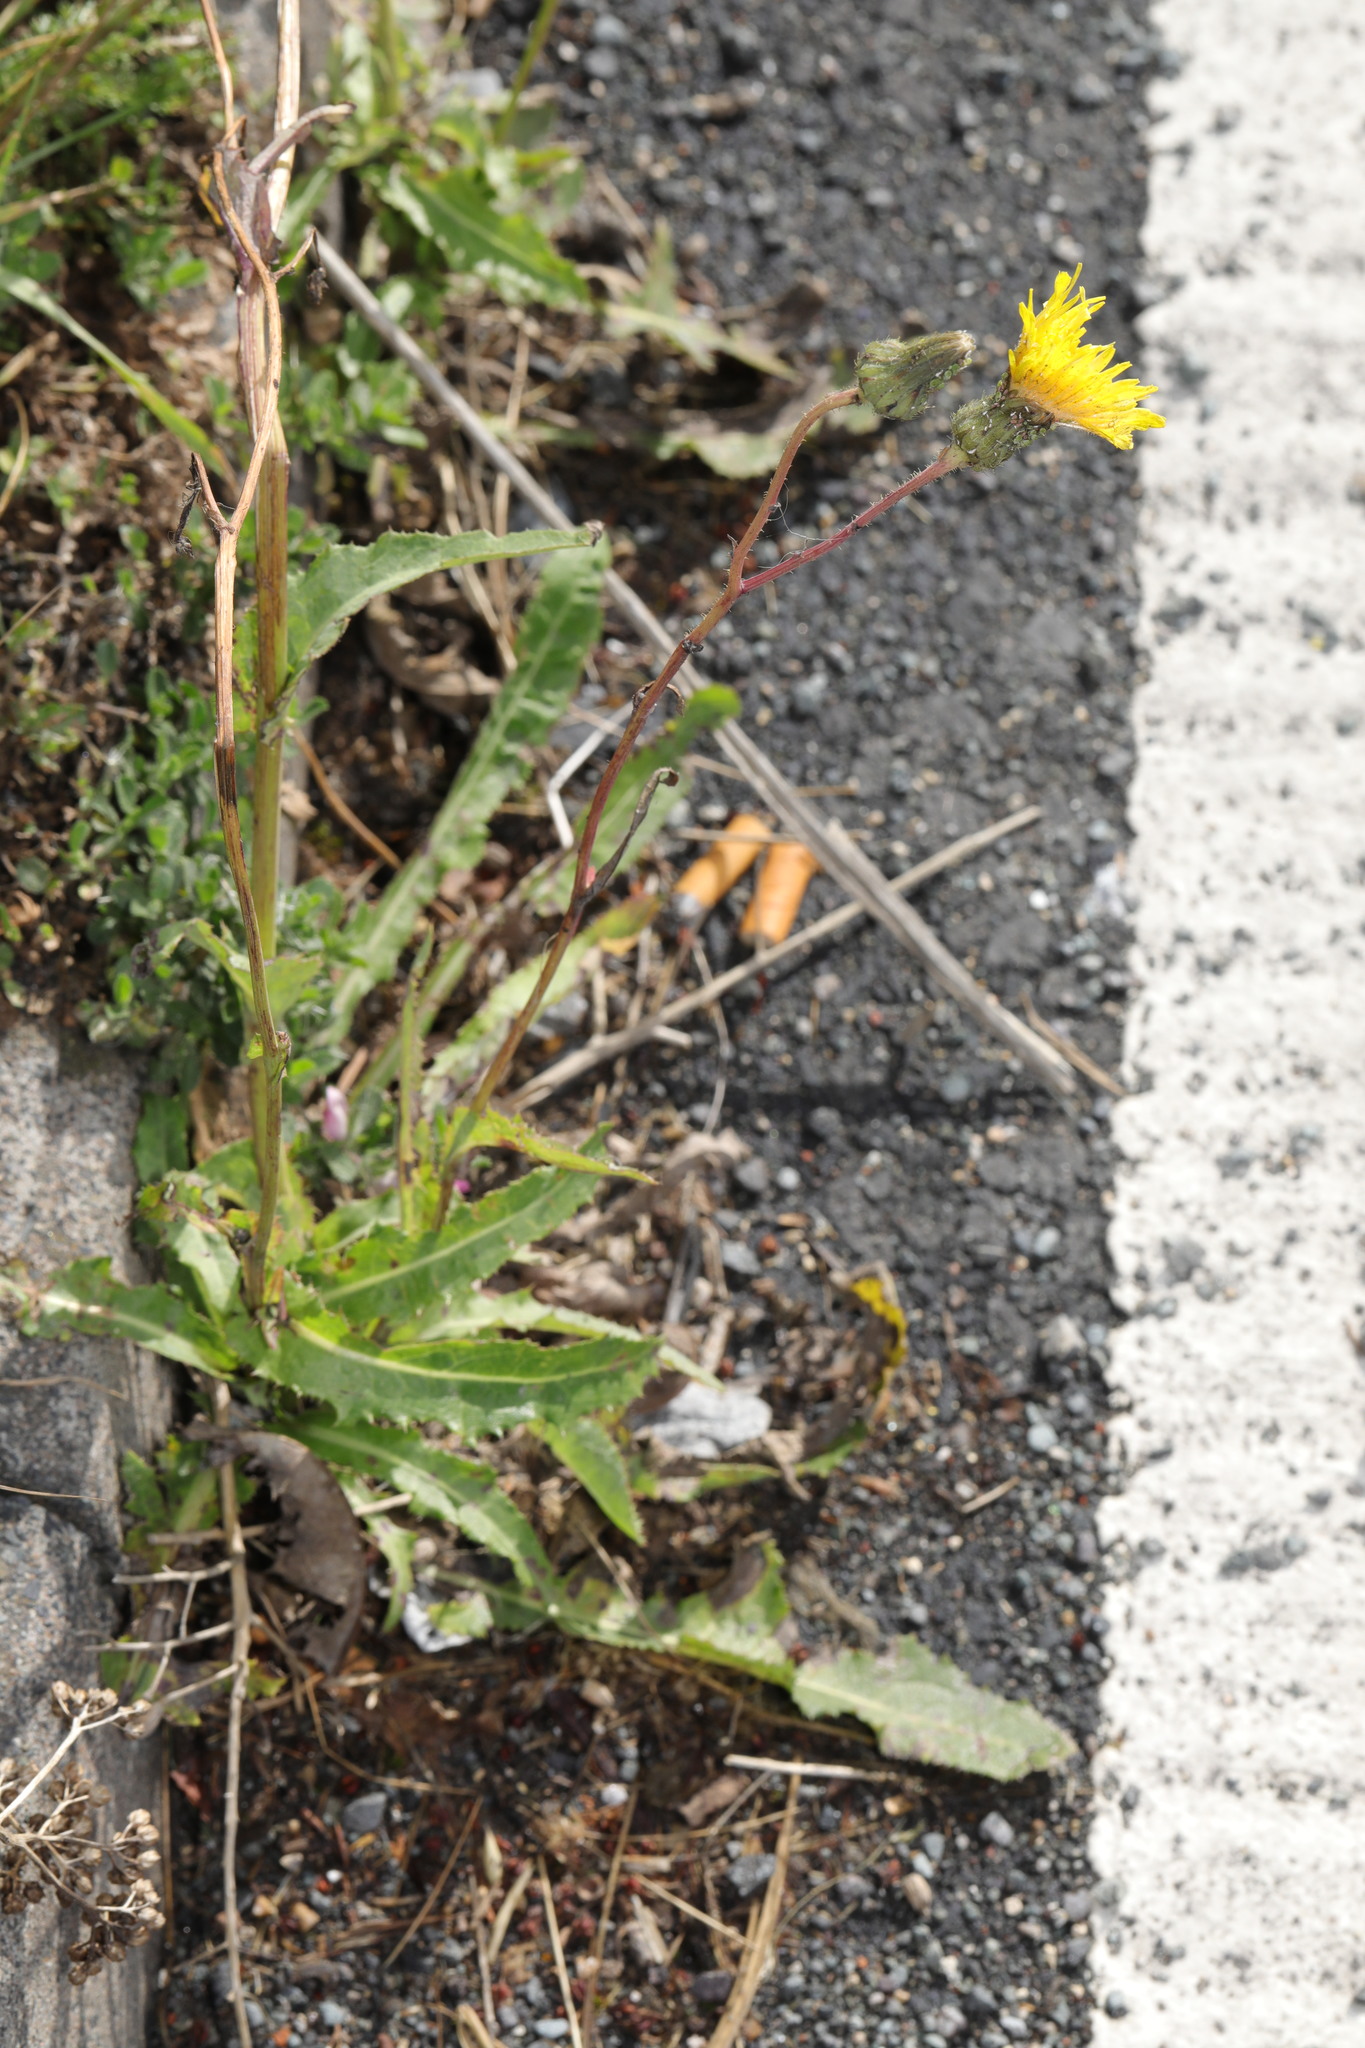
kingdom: Plantae
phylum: Tracheophyta
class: Magnoliopsida
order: Asterales
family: Asteraceae
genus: Sonchus
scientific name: Sonchus arvensis
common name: Perennial sow-thistle
